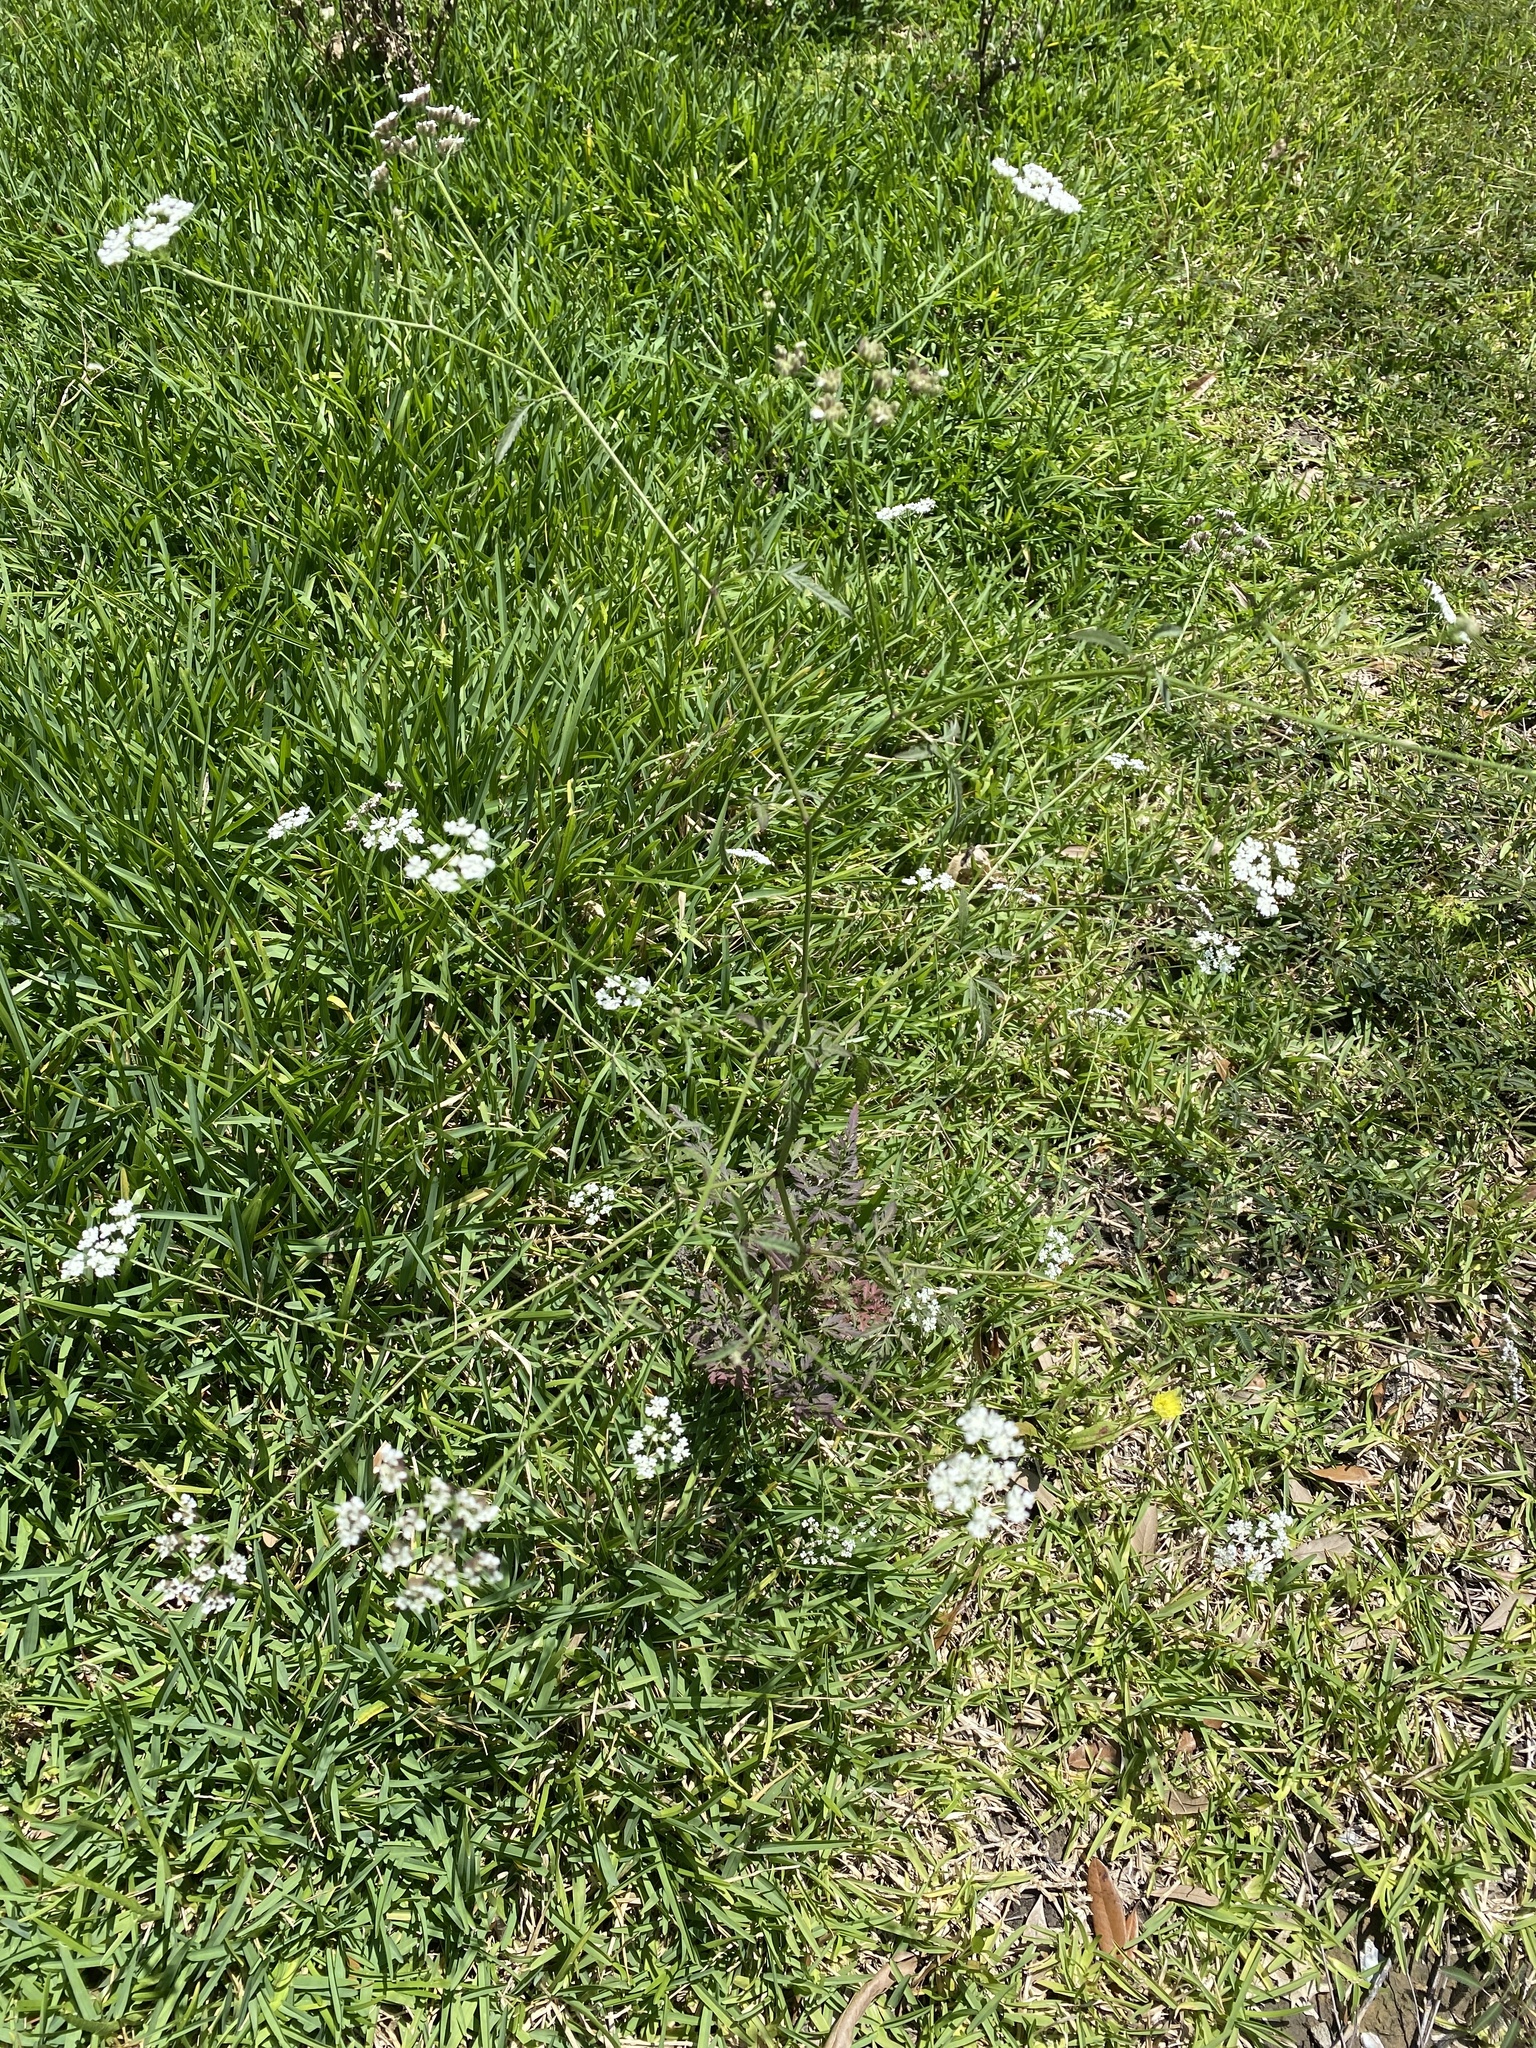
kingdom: Plantae
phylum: Tracheophyta
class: Magnoliopsida
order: Apiales
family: Apiaceae
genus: Torilis
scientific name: Torilis arvensis
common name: Spreading hedge-parsley
